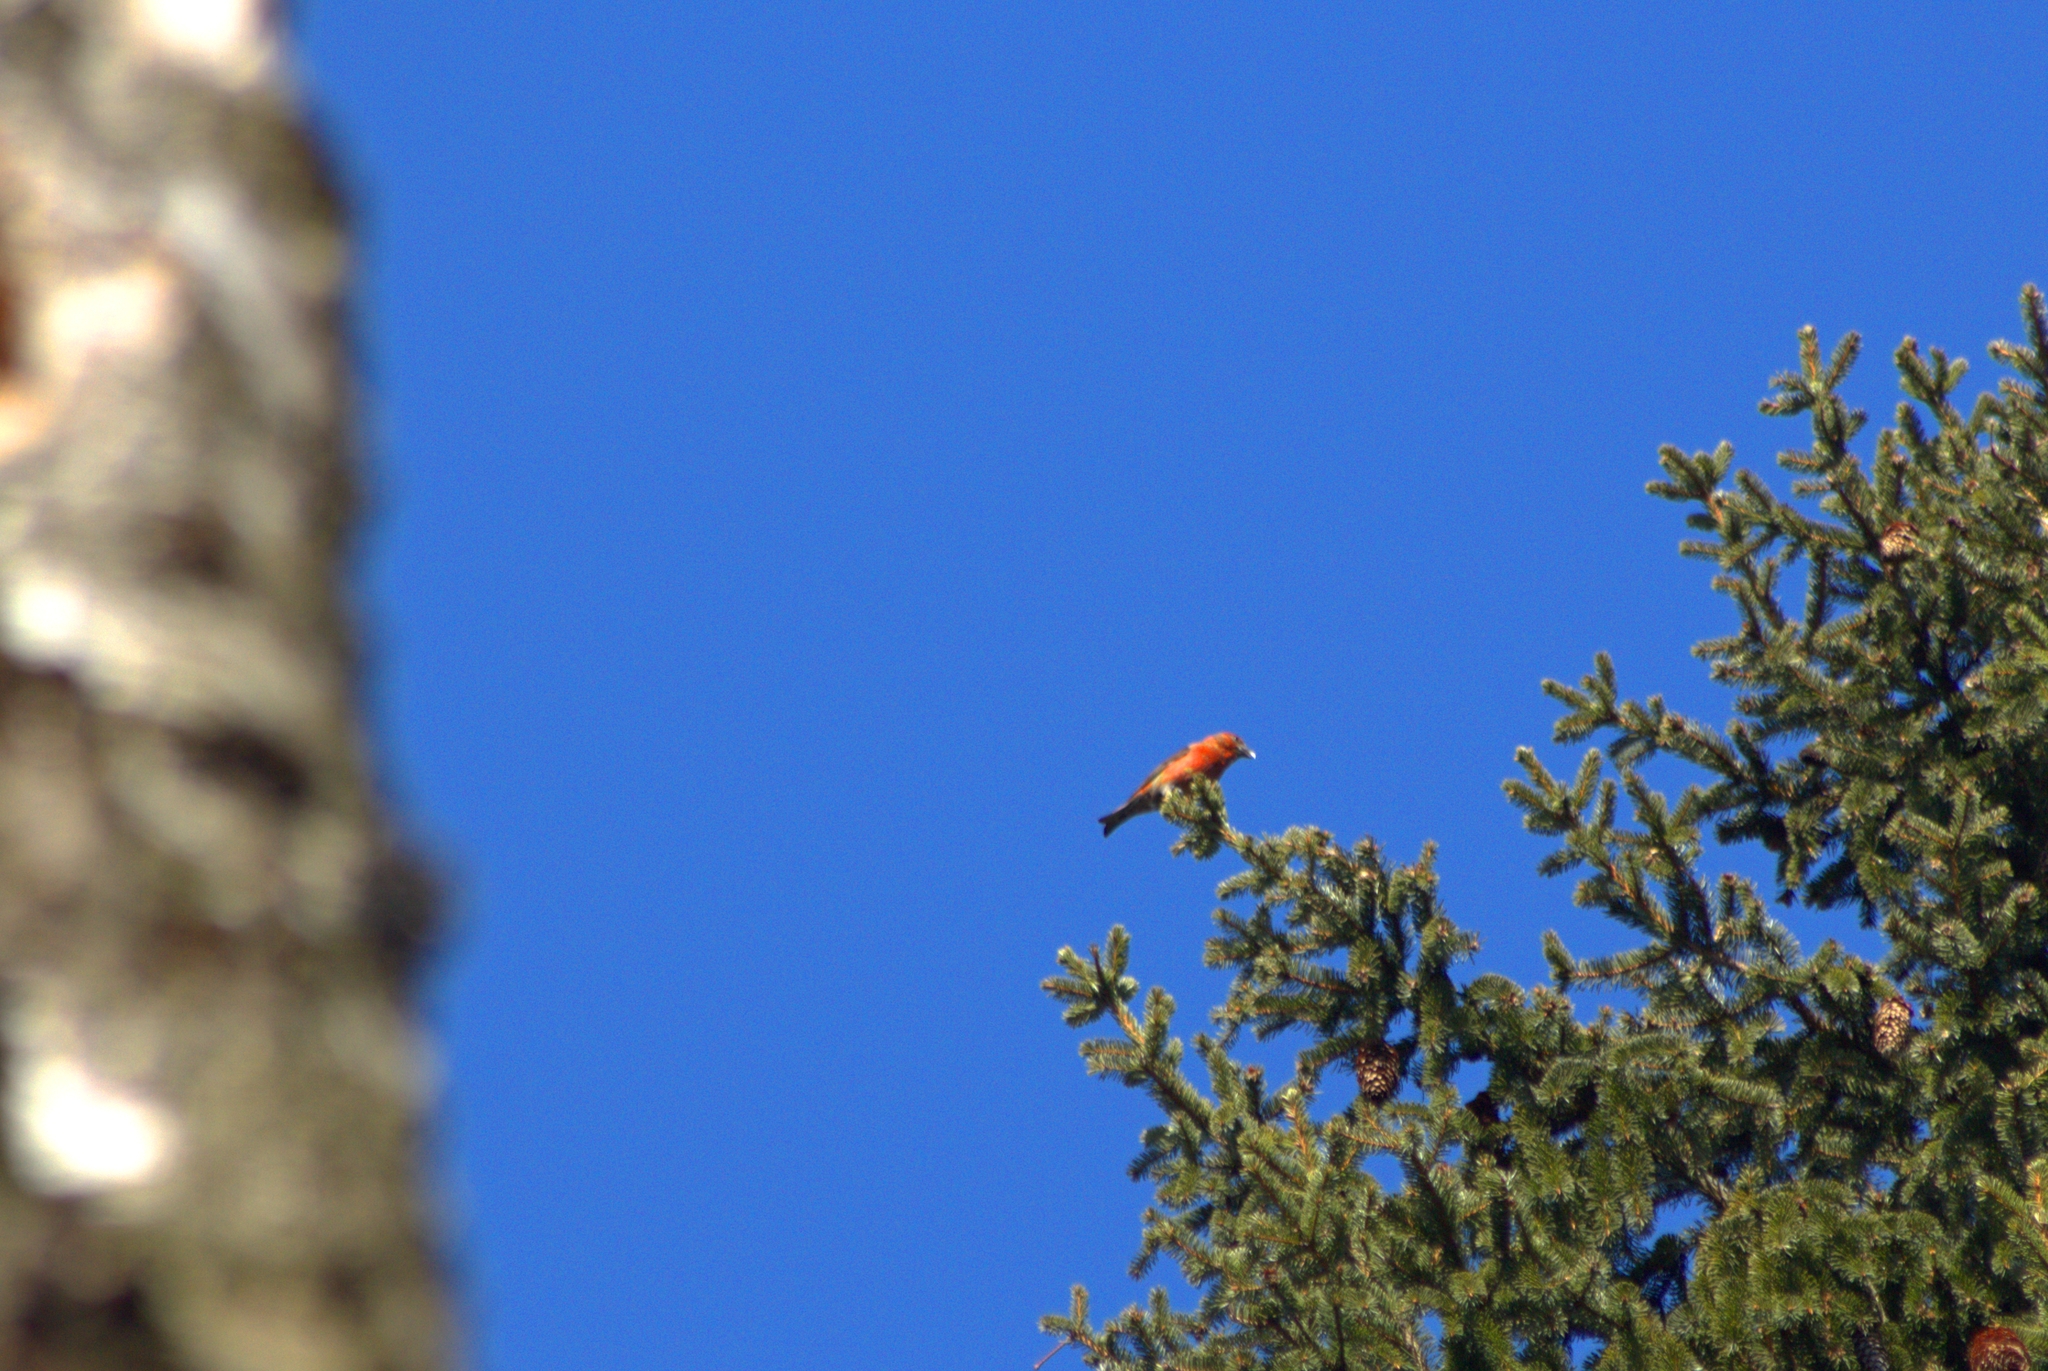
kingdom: Animalia
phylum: Chordata
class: Aves
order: Passeriformes
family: Fringillidae
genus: Loxia
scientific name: Loxia curvirostra
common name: Red crossbill
